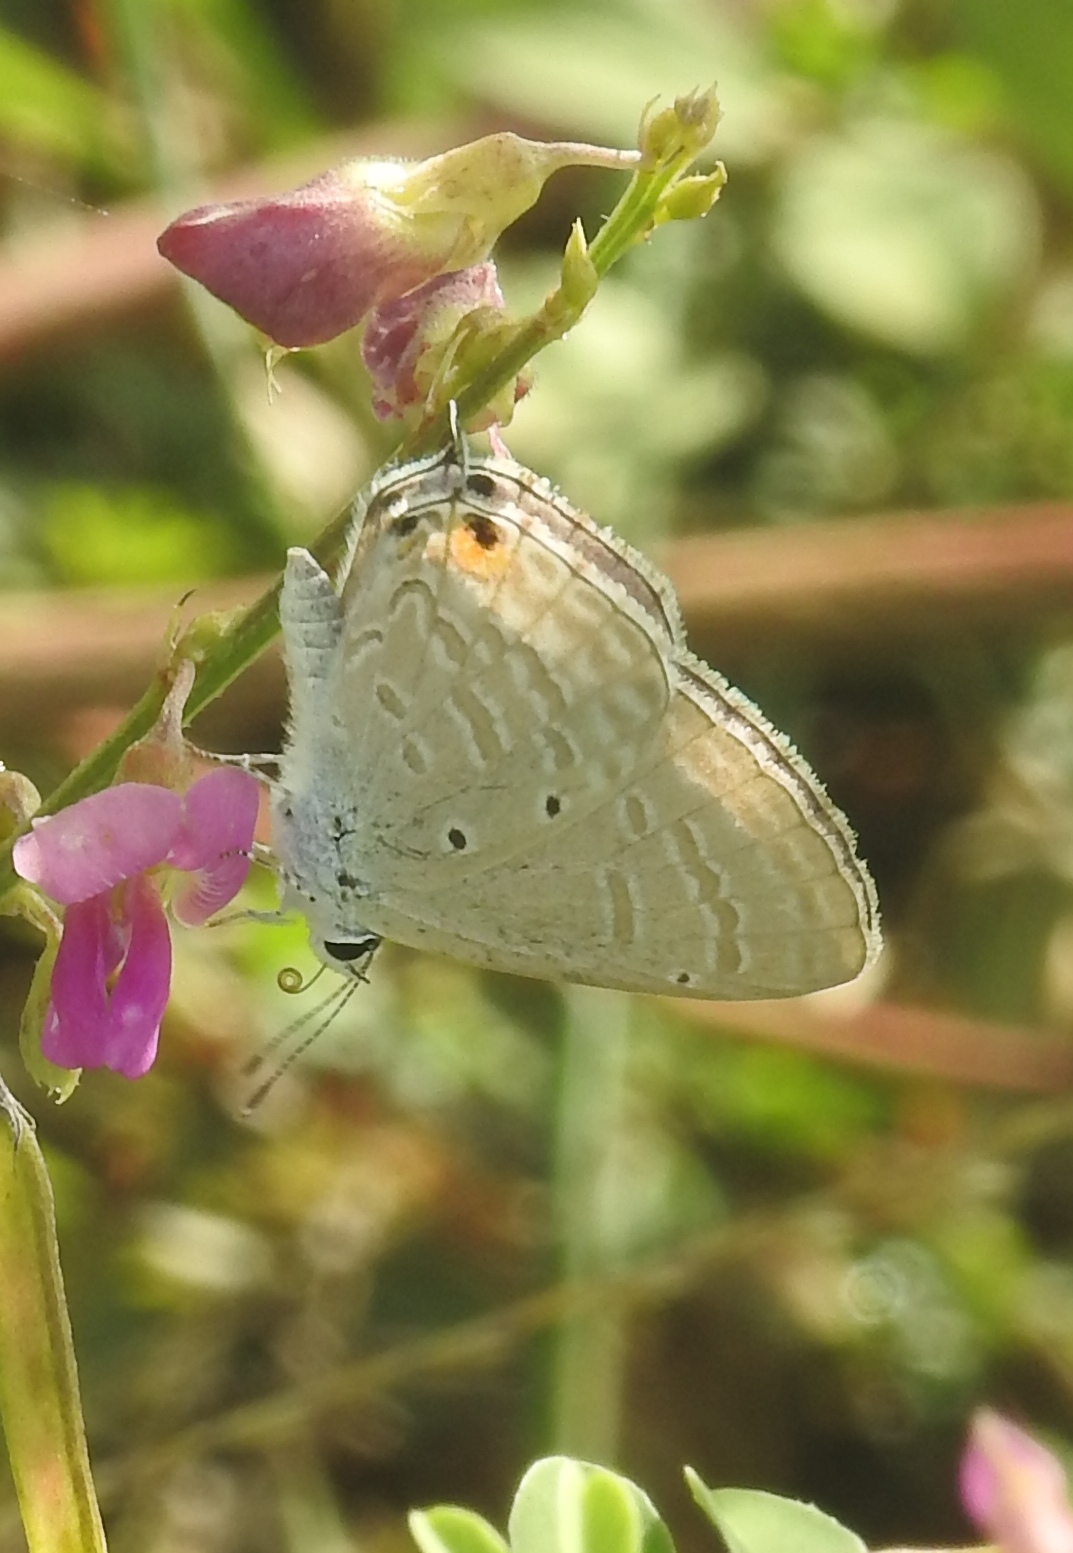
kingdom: Animalia
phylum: Arthropoda
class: Insecta
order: Lepidoptera
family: Lycaenidae
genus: Catochrysops
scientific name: Catochrysops strabo
